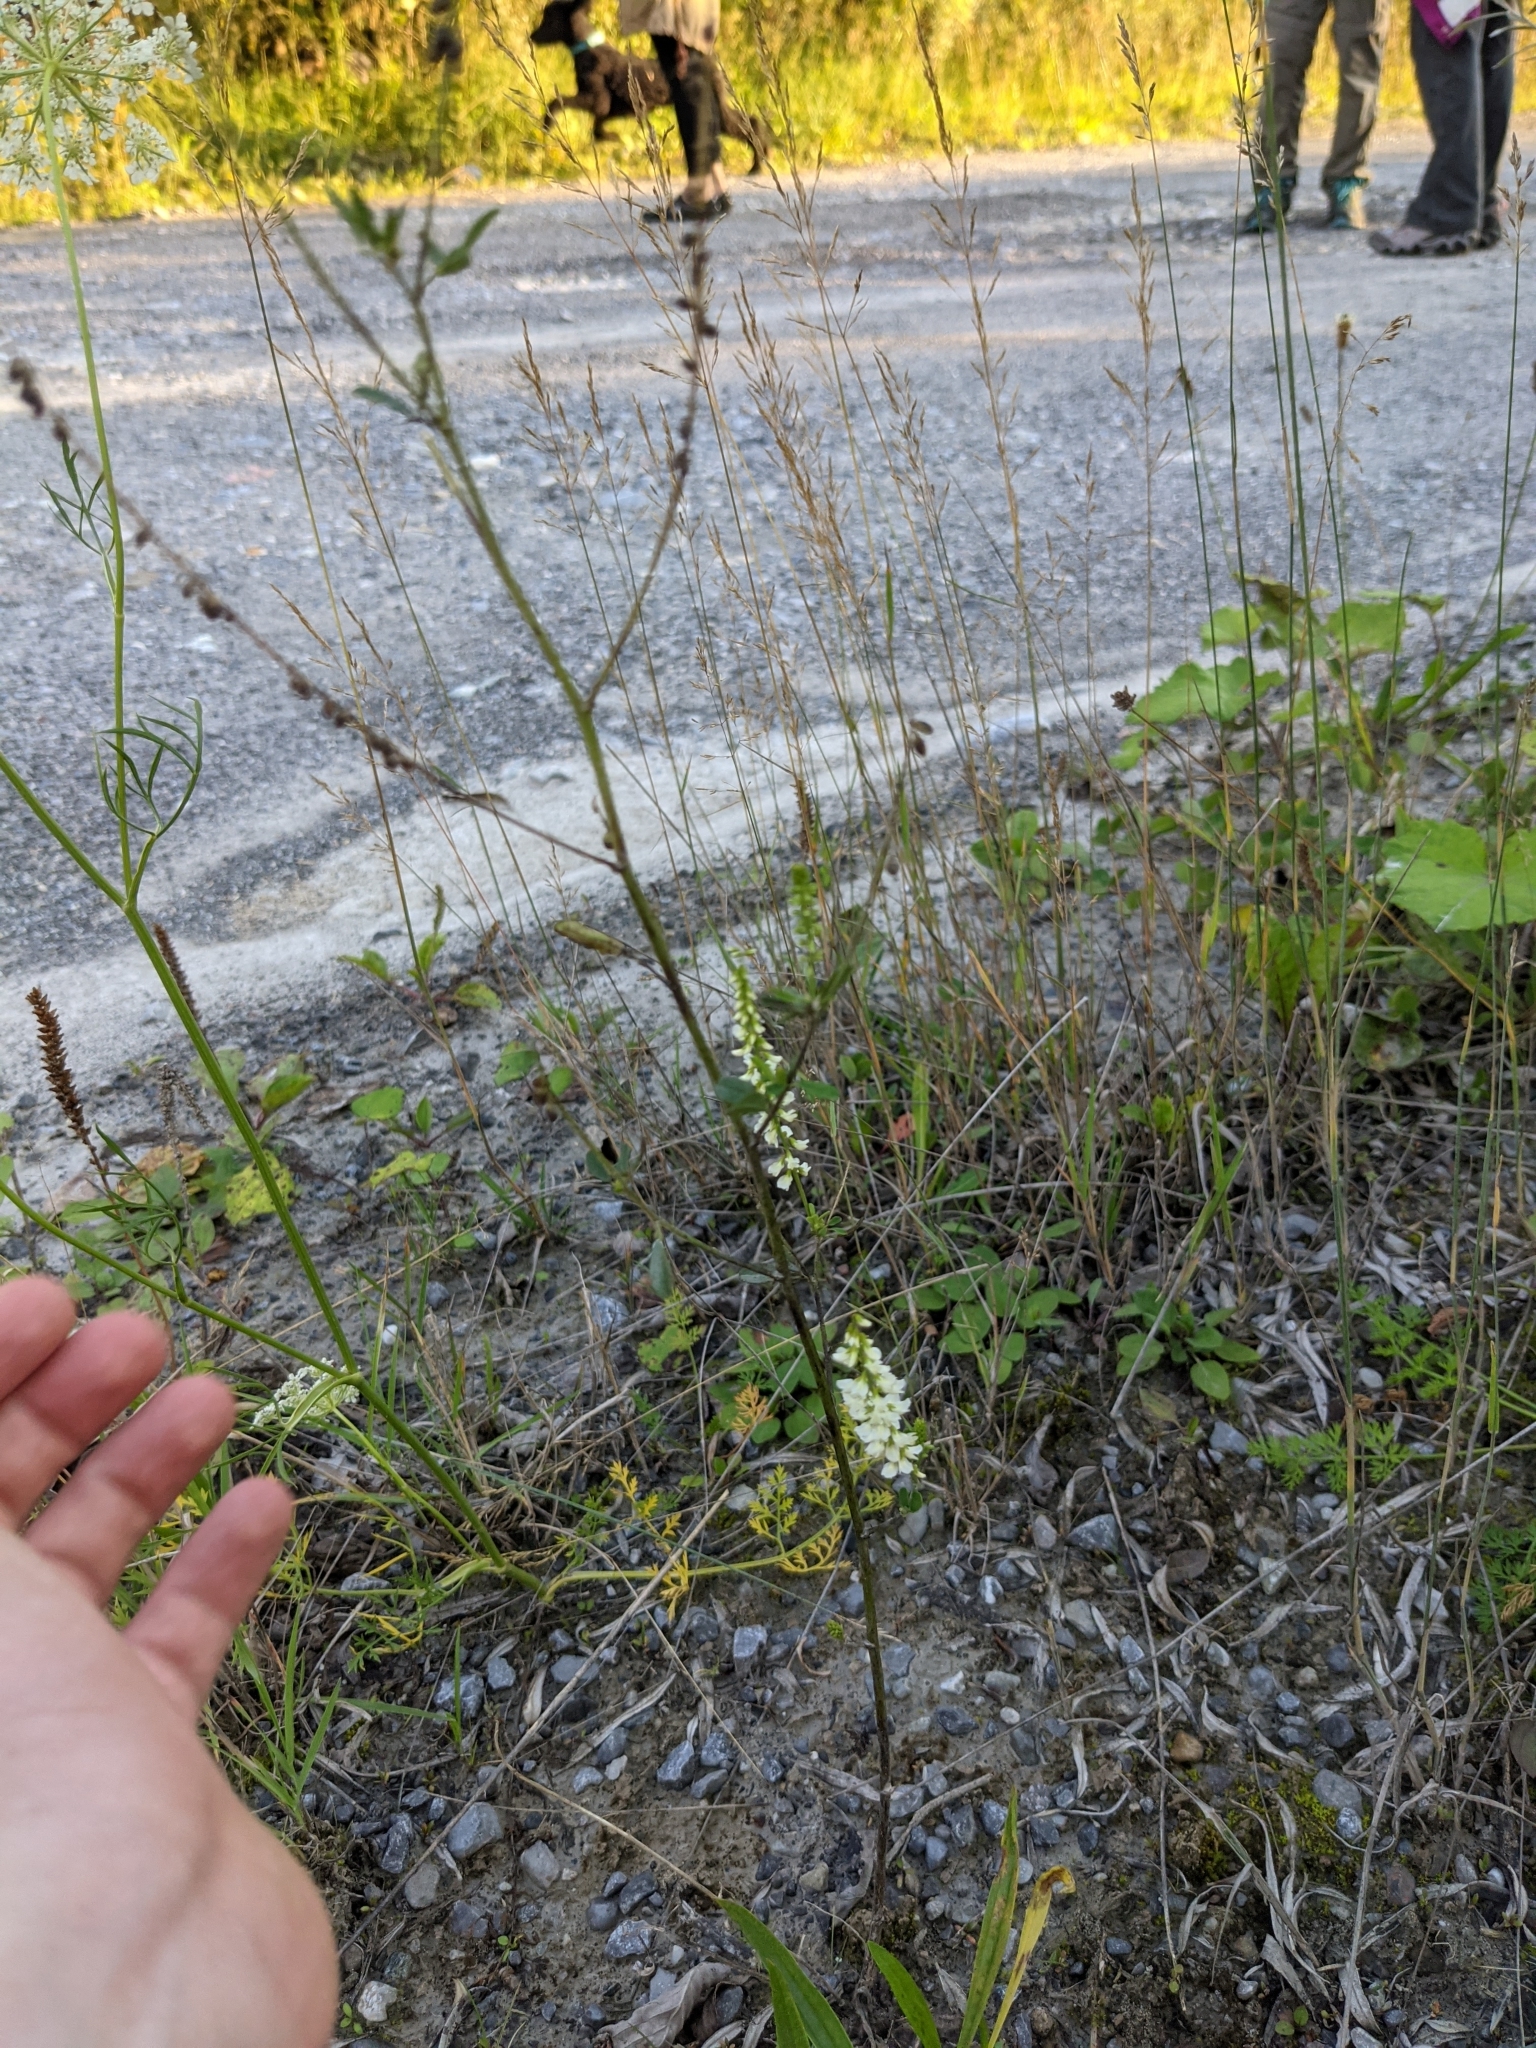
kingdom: Plantae
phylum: Tracheophyta
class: Magnoliopsida
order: Fabales
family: Fabaceae
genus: Melilotus
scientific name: Melilotus albus
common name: White melilot
